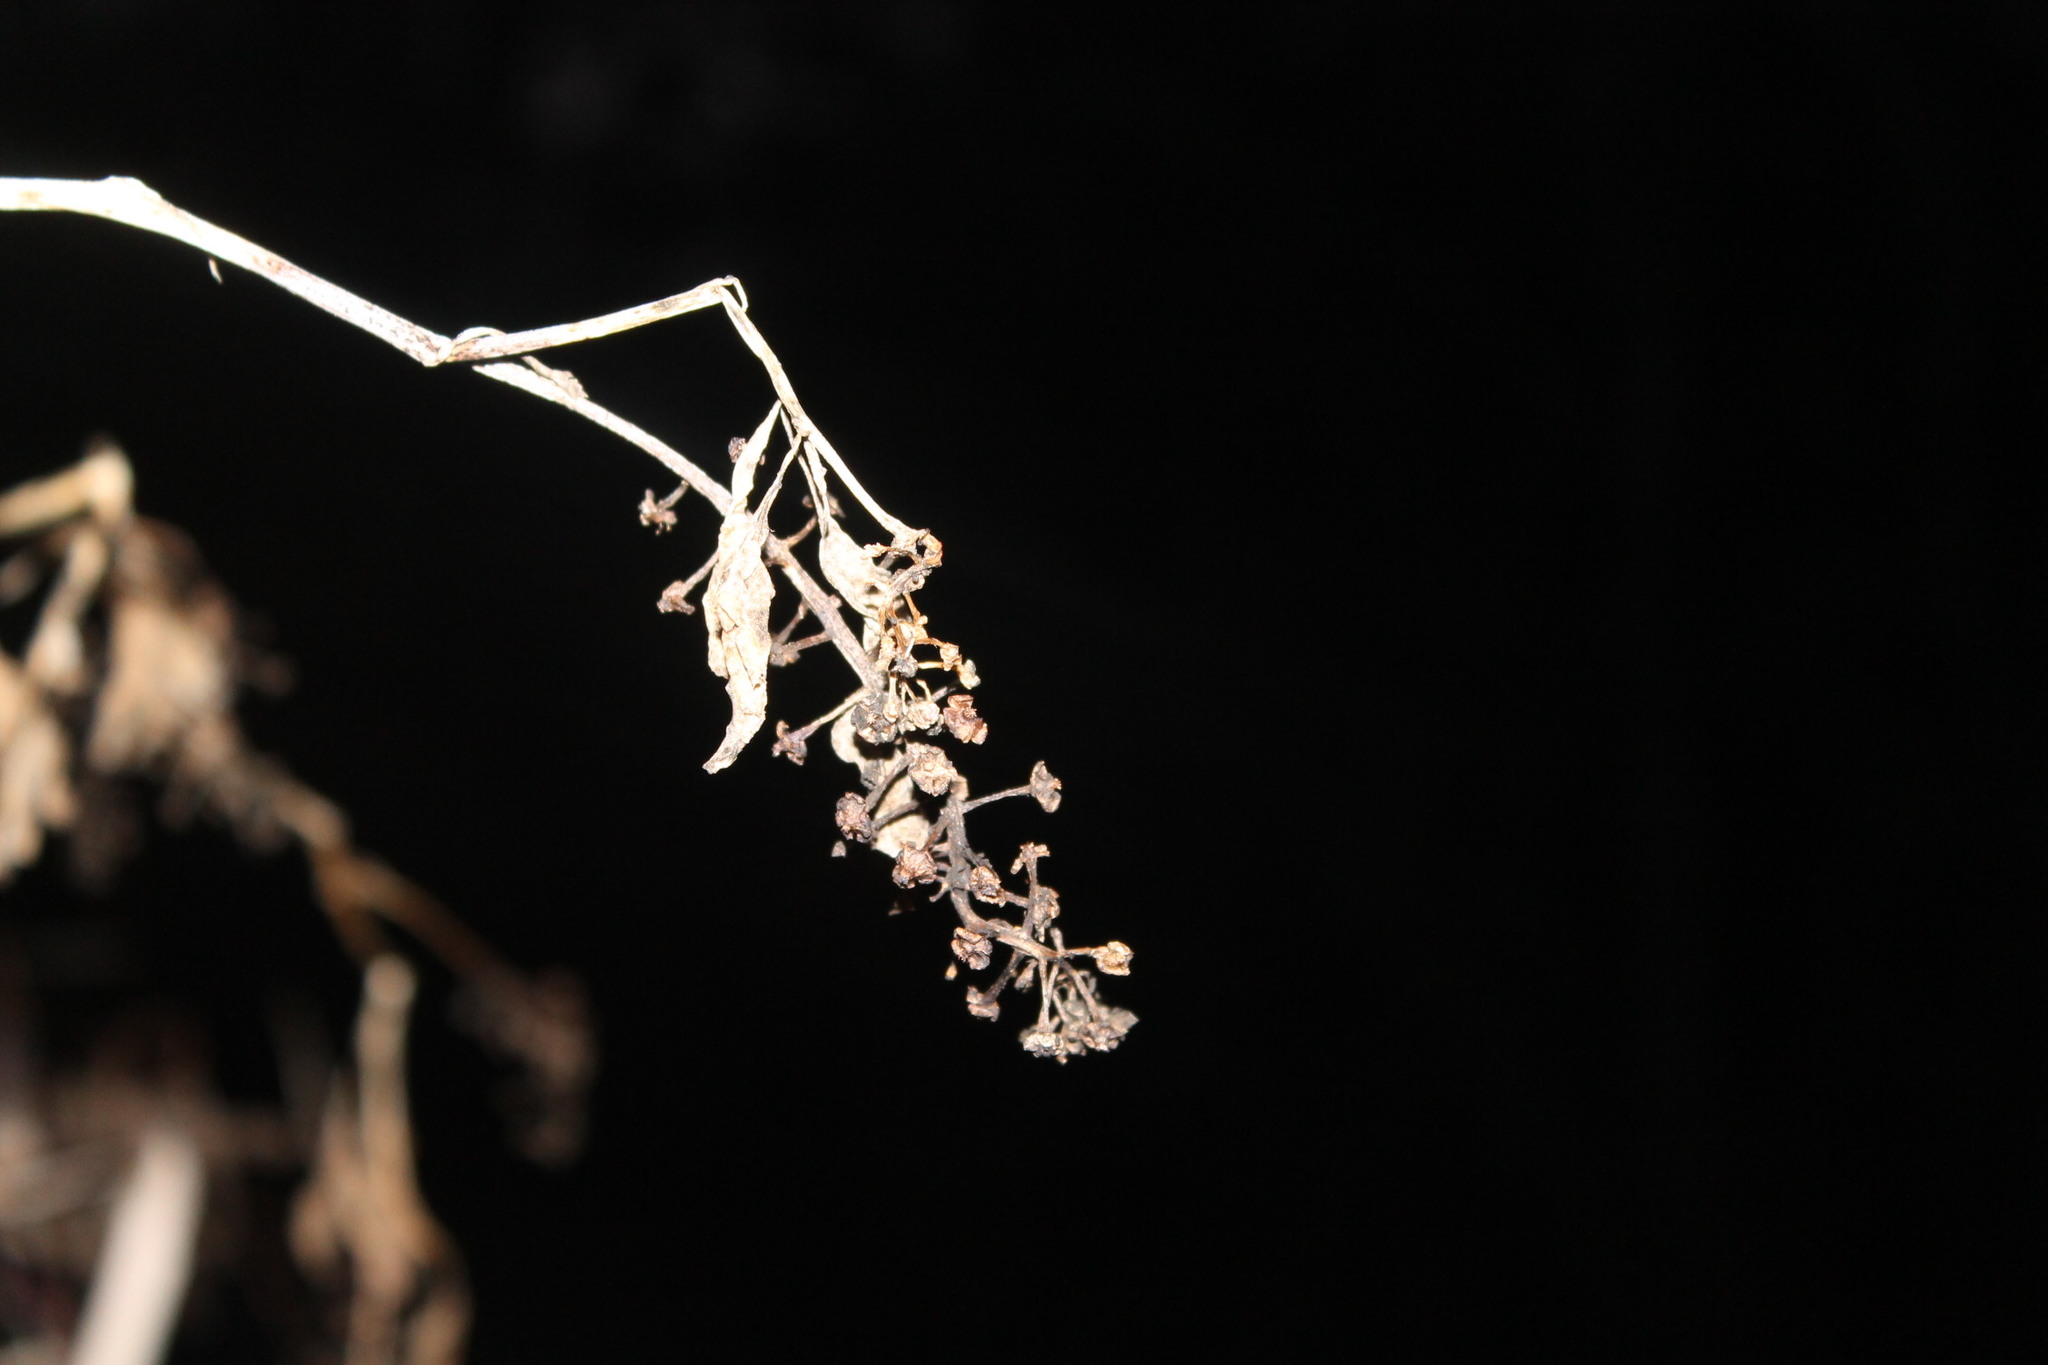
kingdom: Plantae
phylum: Tracheophyta
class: Magnoliopsida
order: Caryophyllales
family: Phytolaccaceae
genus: Phytolacca
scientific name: Phytolacca americana
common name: American pokeweed
